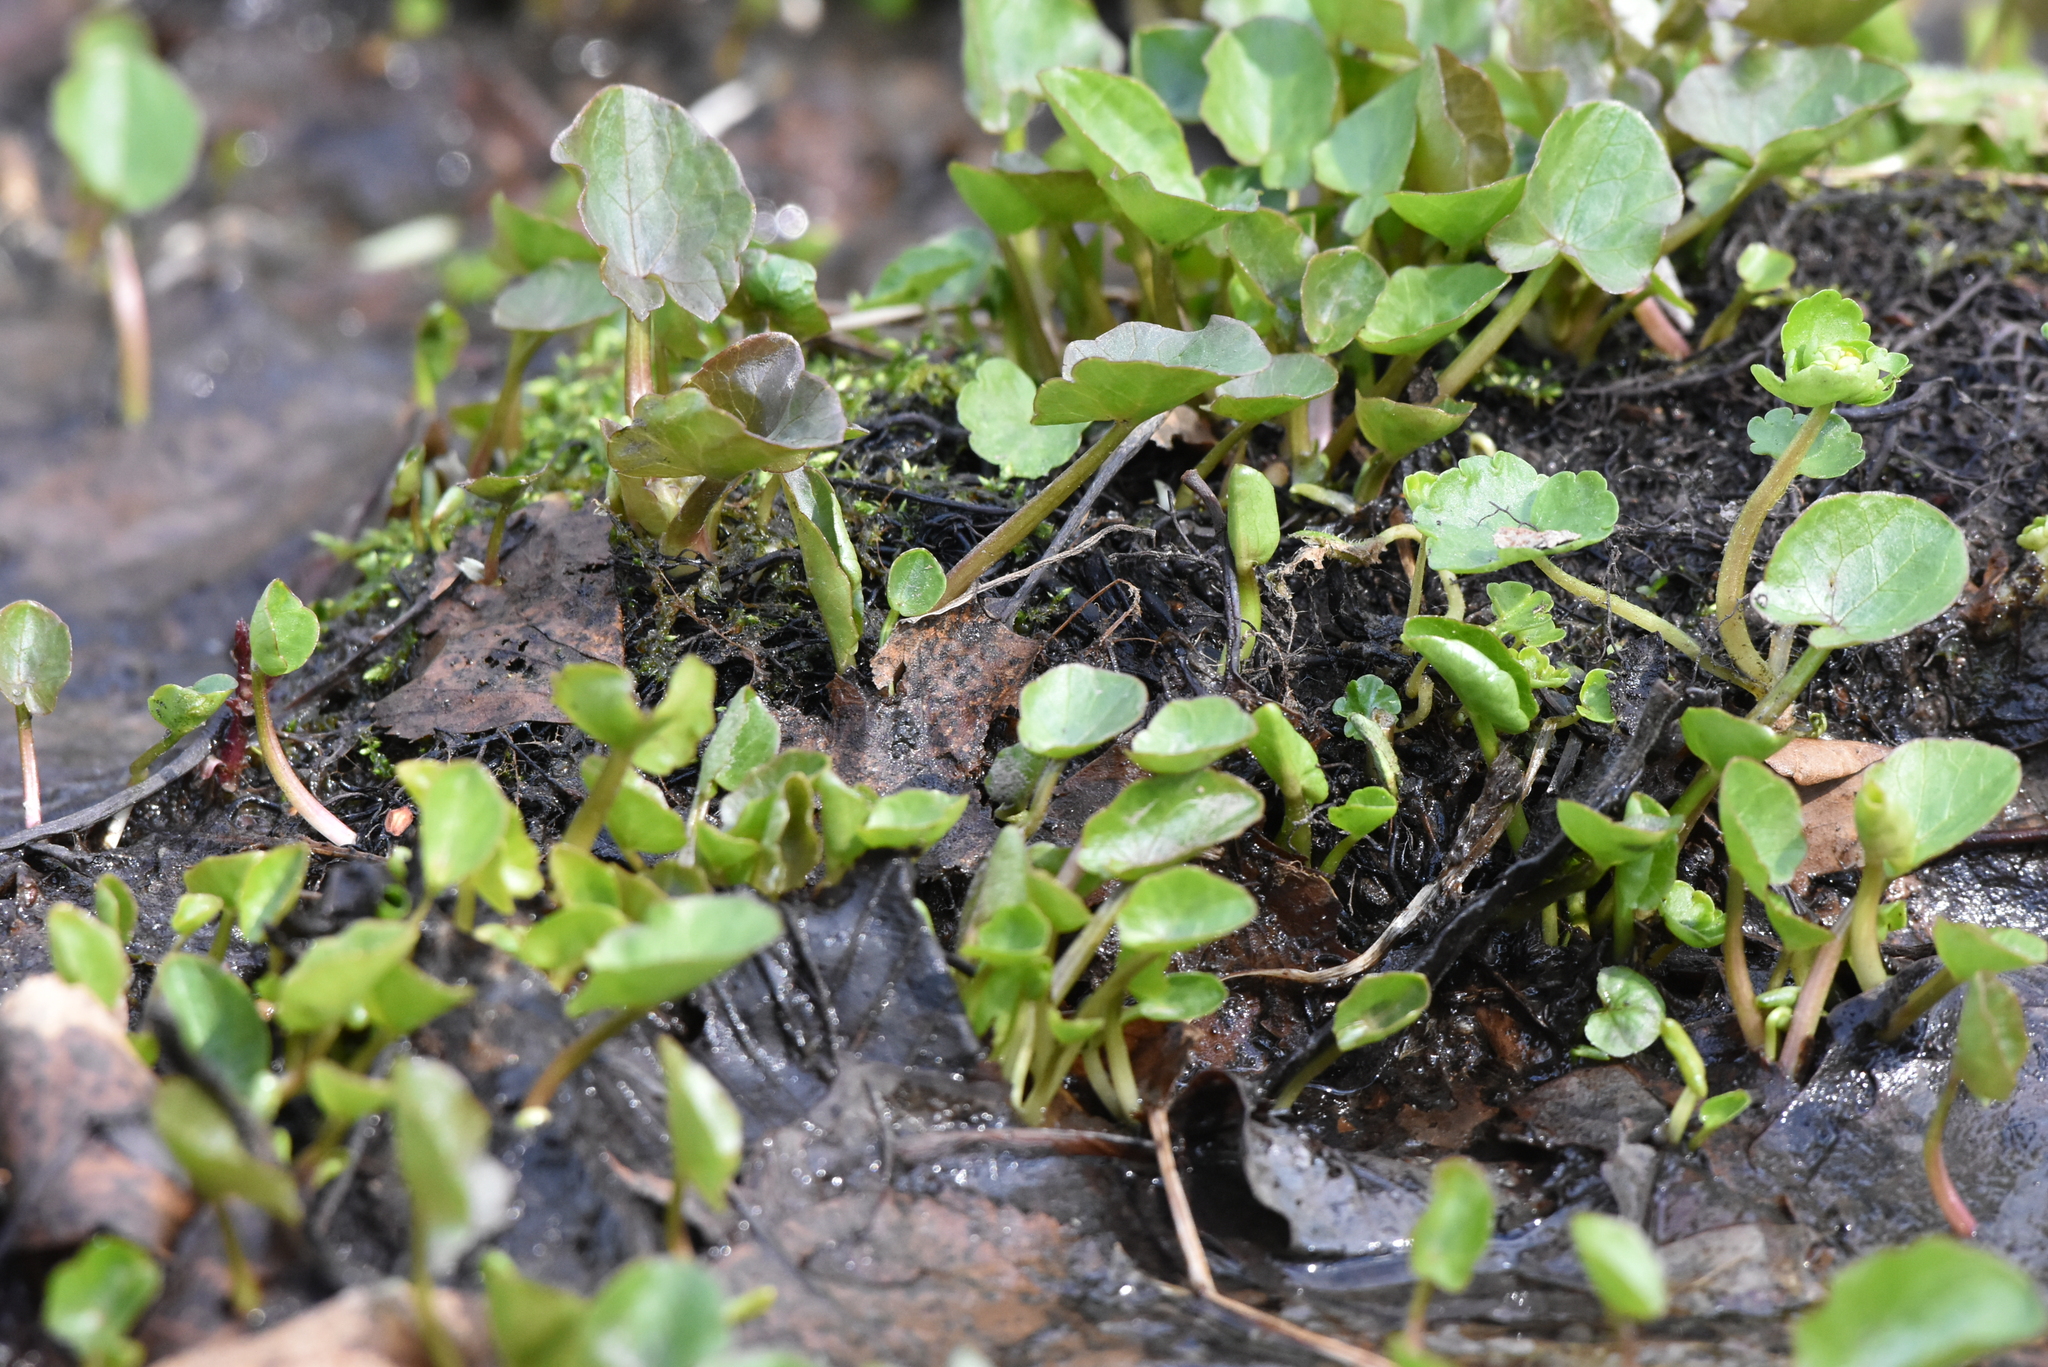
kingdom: Plantae
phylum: Tracheophyta
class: Magnoliopsida
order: Ranunculales
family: Ranunculaceae
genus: Ficaria
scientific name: Ficaria verna
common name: Lesser celandine
